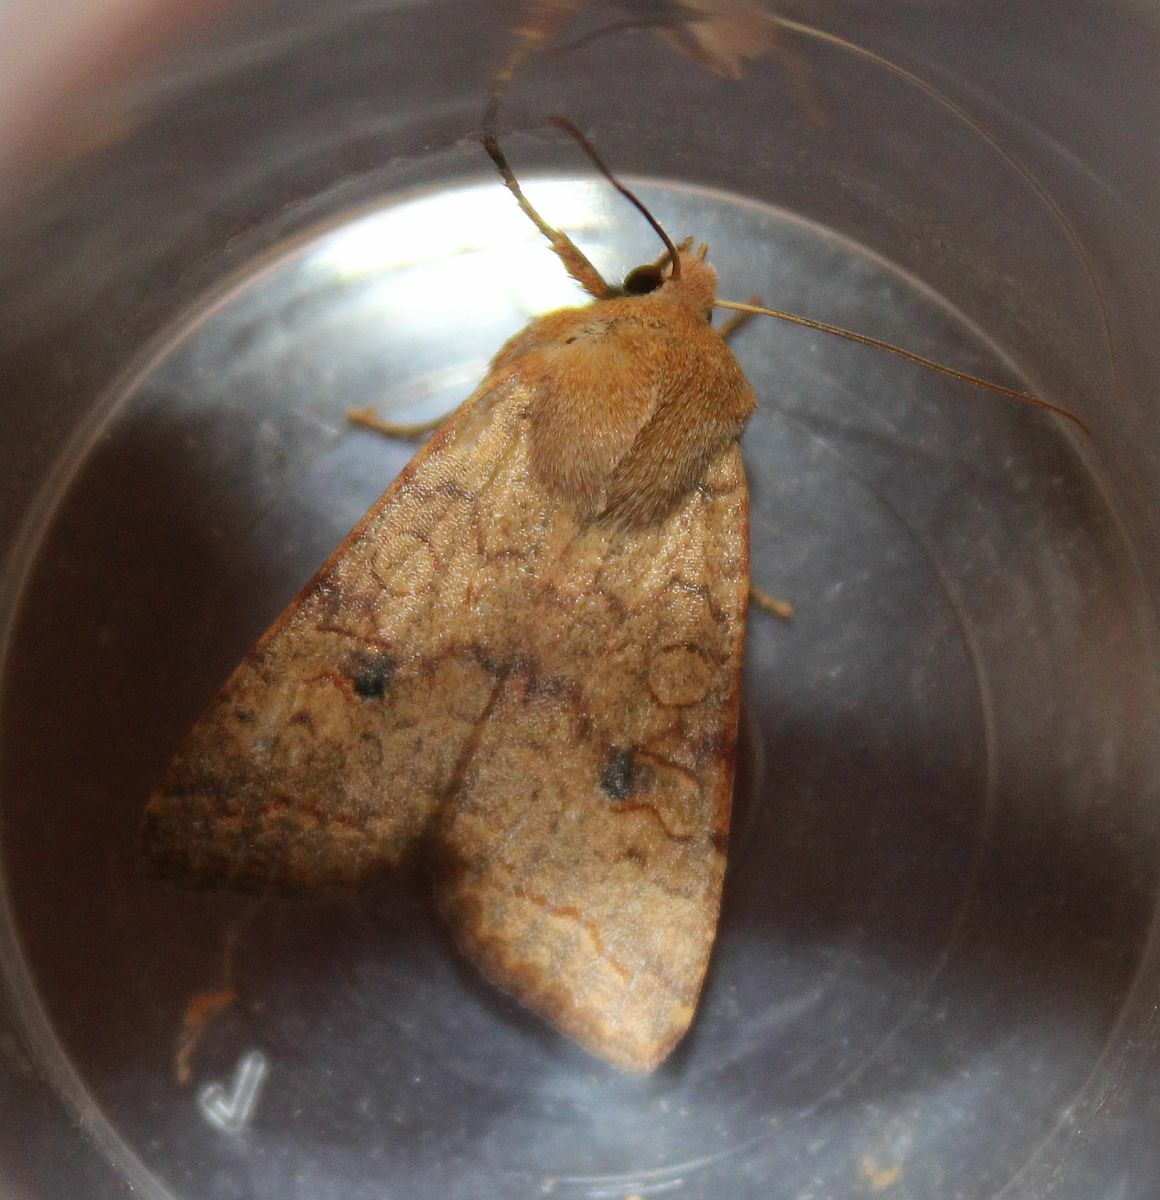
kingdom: Animalia
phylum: Arthropoda
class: Insecta
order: Lepidoptera
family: Noctuidae
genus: Sunira
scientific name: Sunira circellaris
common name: Brick
